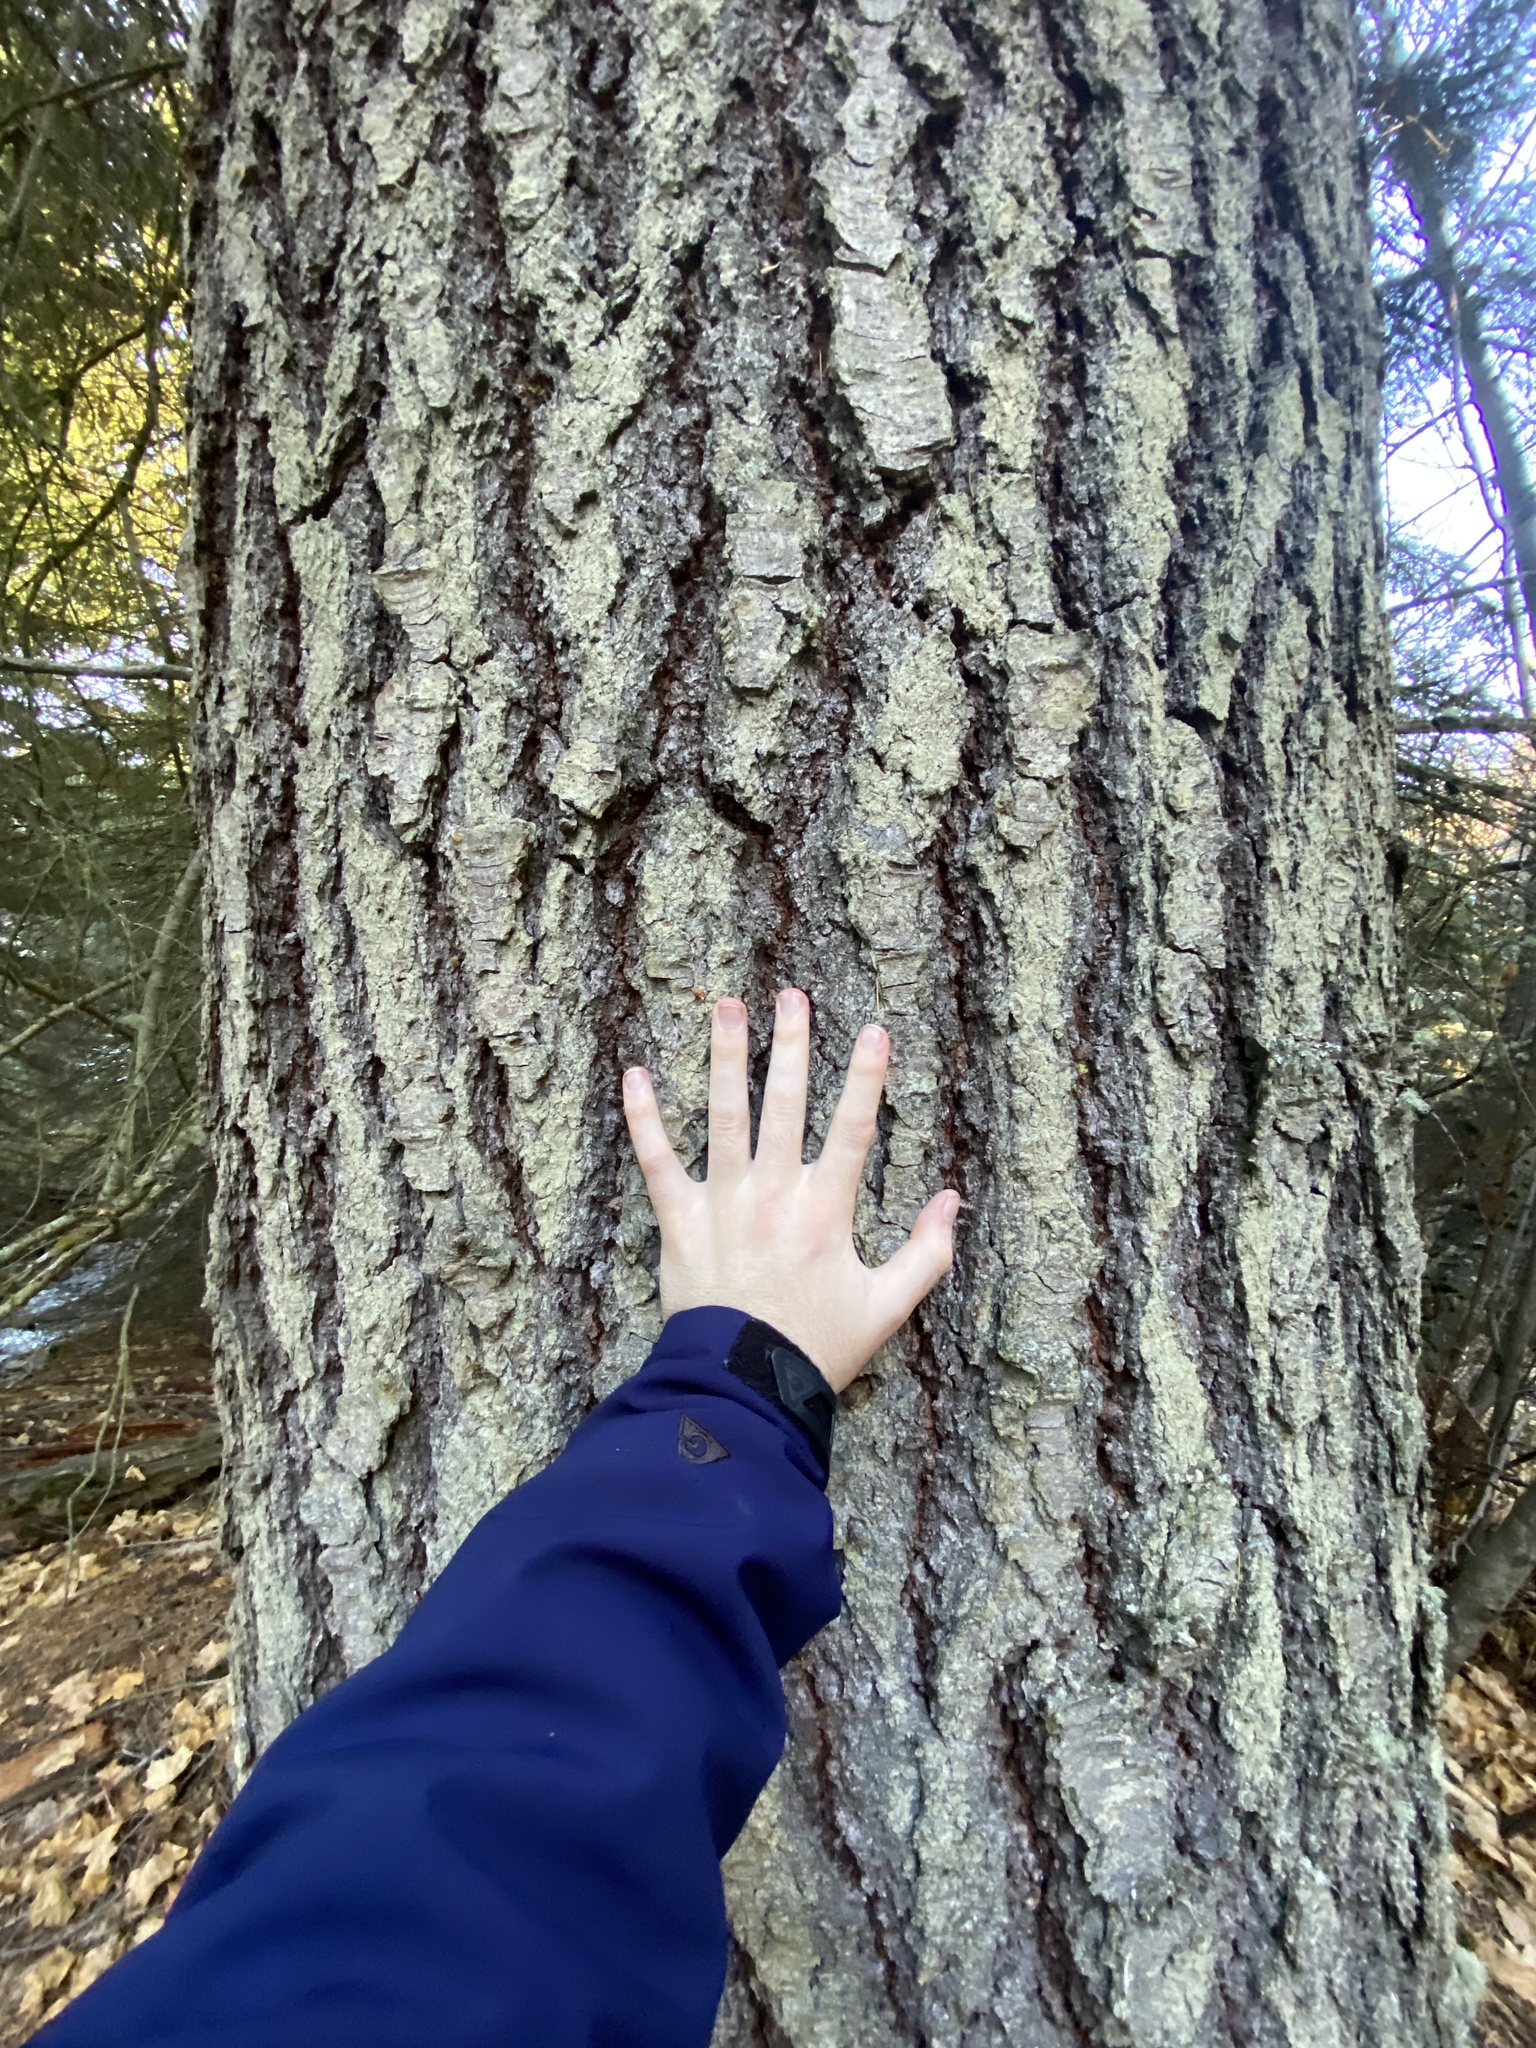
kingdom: Plantae
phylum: Tracheophyta
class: Pinopsida
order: Pinales
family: Pinaceae
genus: Abies
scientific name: Abies concolor
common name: Colorado fir
